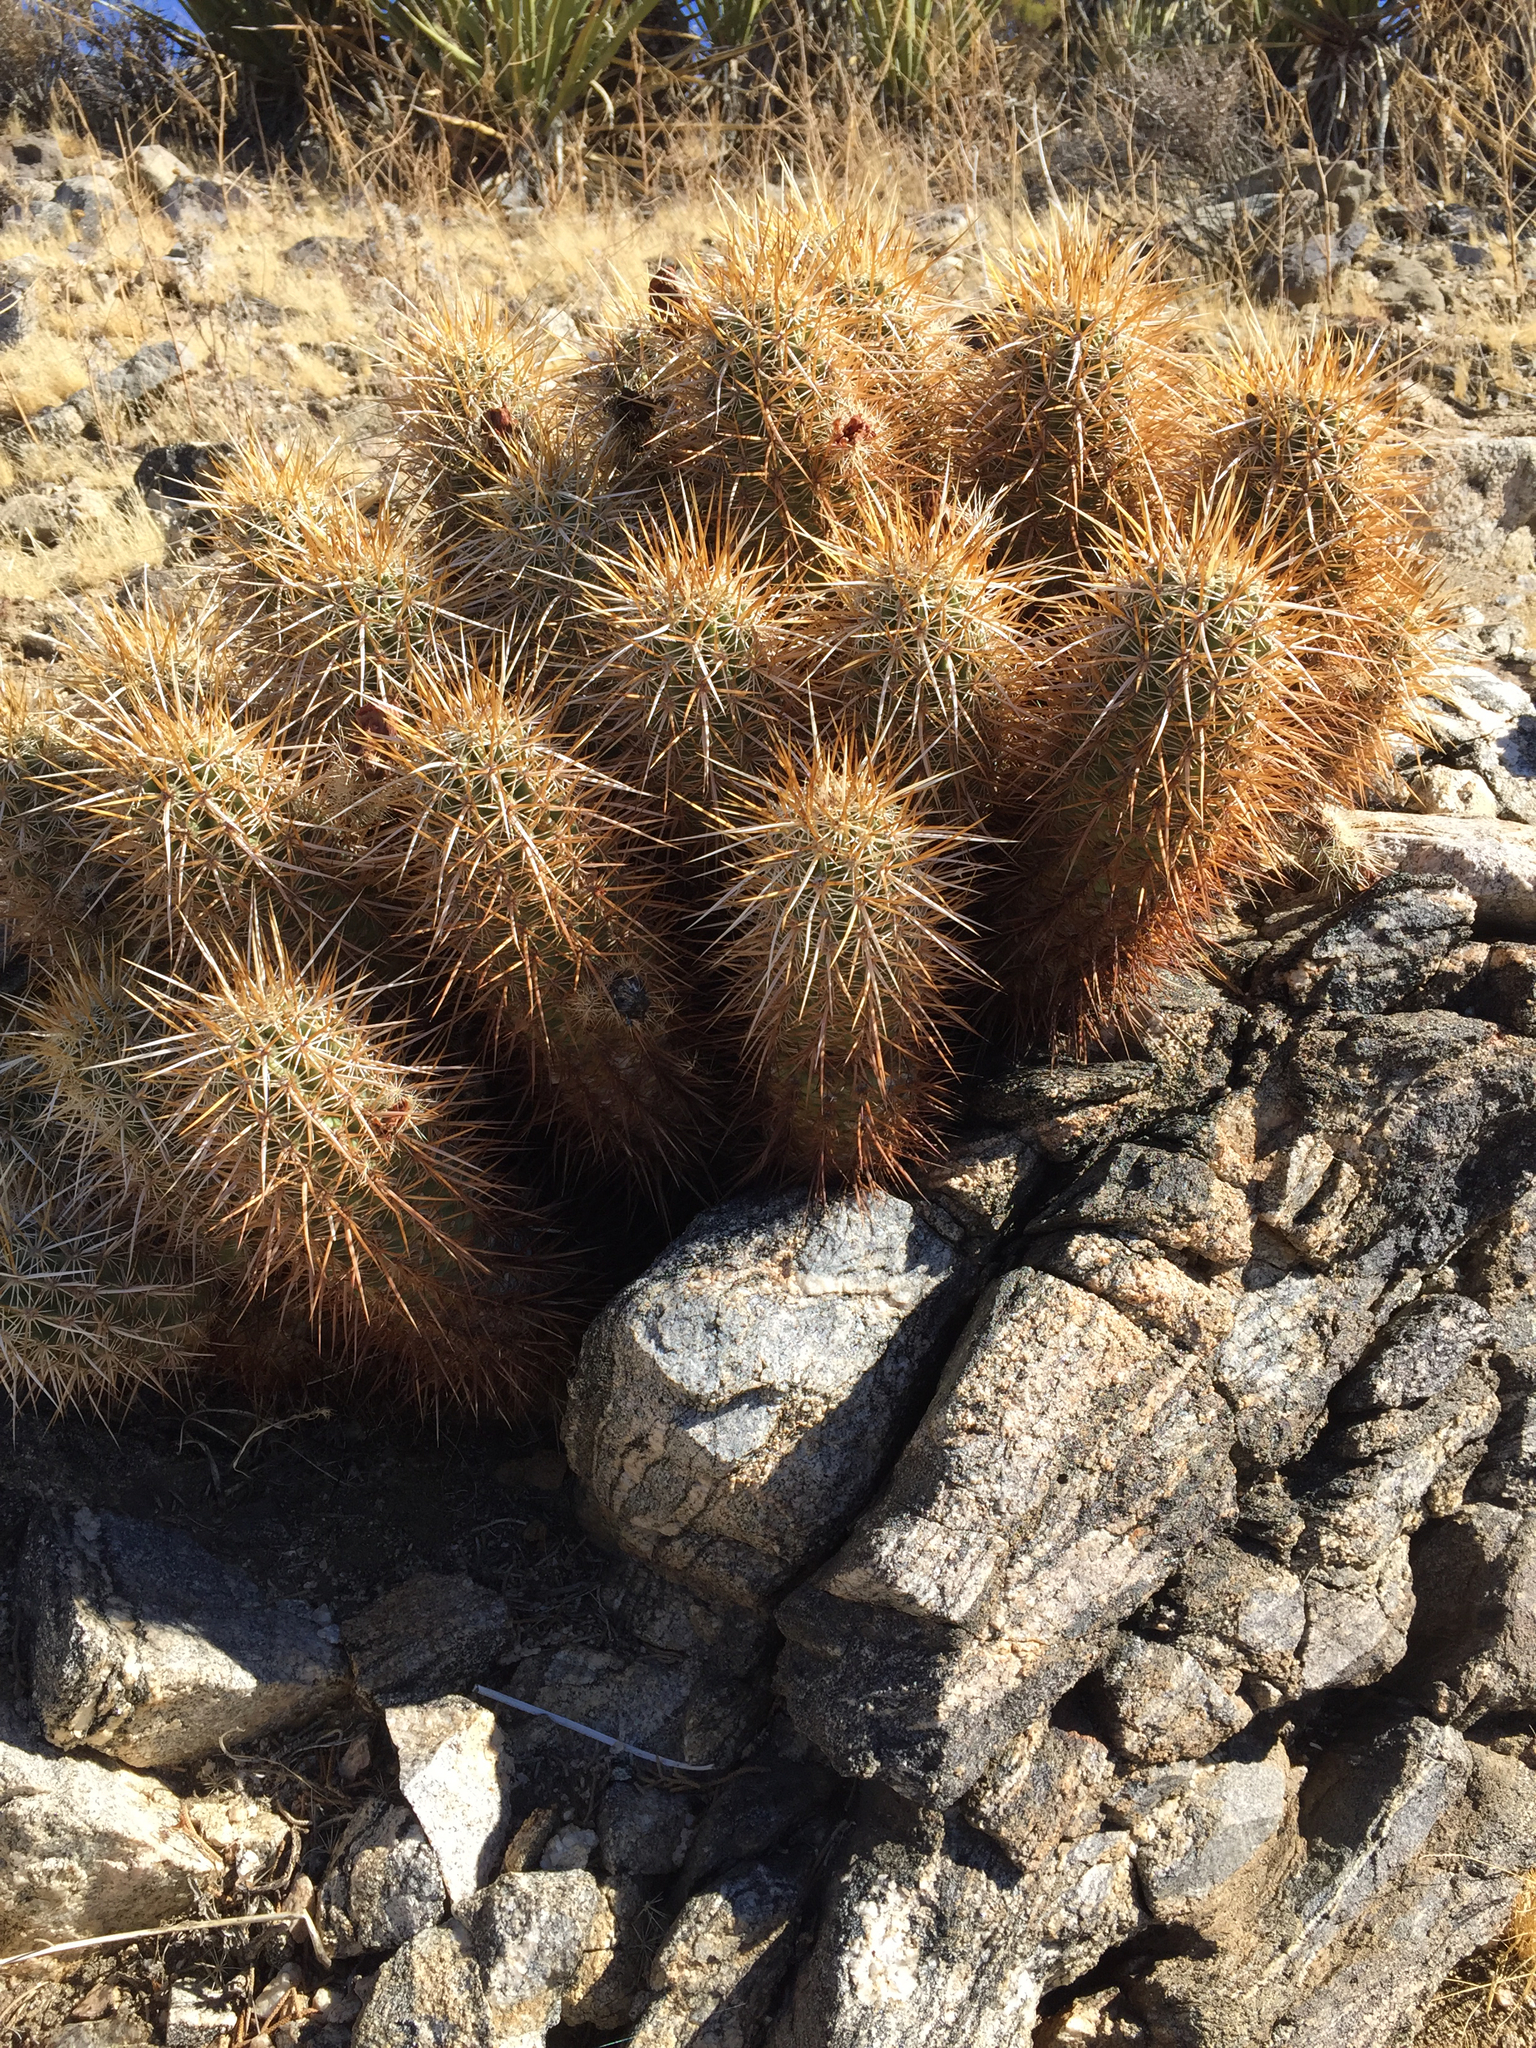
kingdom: Plantae
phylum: Tracheophyta
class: Magnoliopsida
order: Caryophyllales
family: Cactaceae
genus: Echinocereus
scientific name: Echinocereus engelmannii
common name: Engelmann's hedgehog cactus
